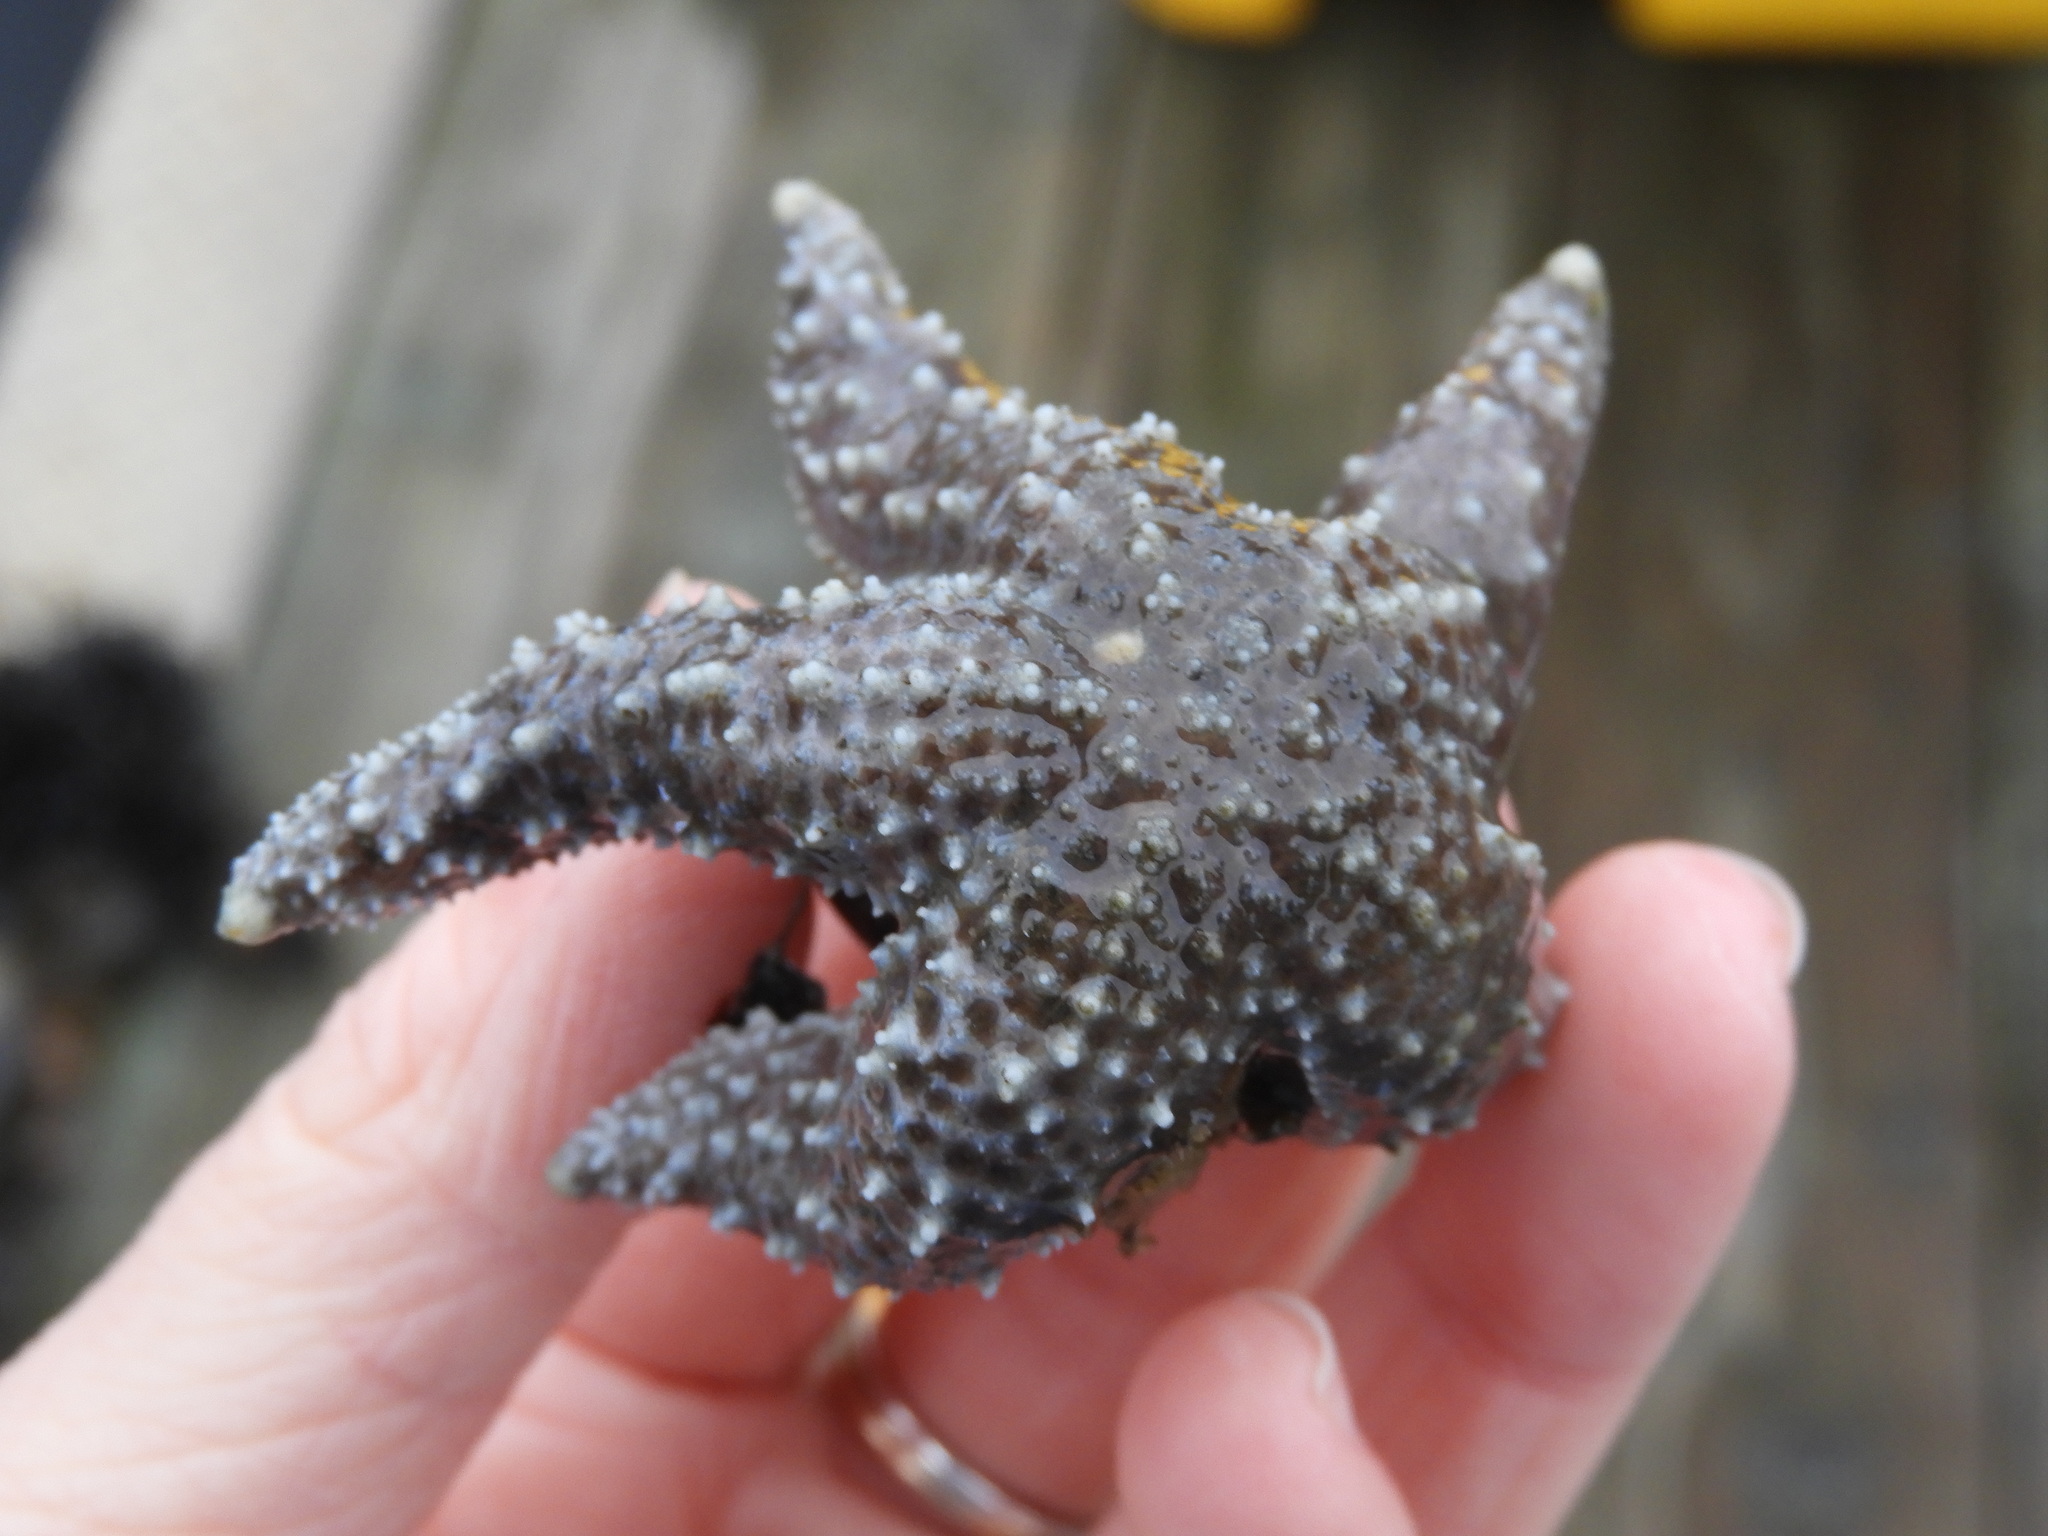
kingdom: Animalia
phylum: Echinodermata
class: Asteroidea
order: Forcipulatida
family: Asteriidae
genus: Evasterias
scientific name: Evasterias troschelii
